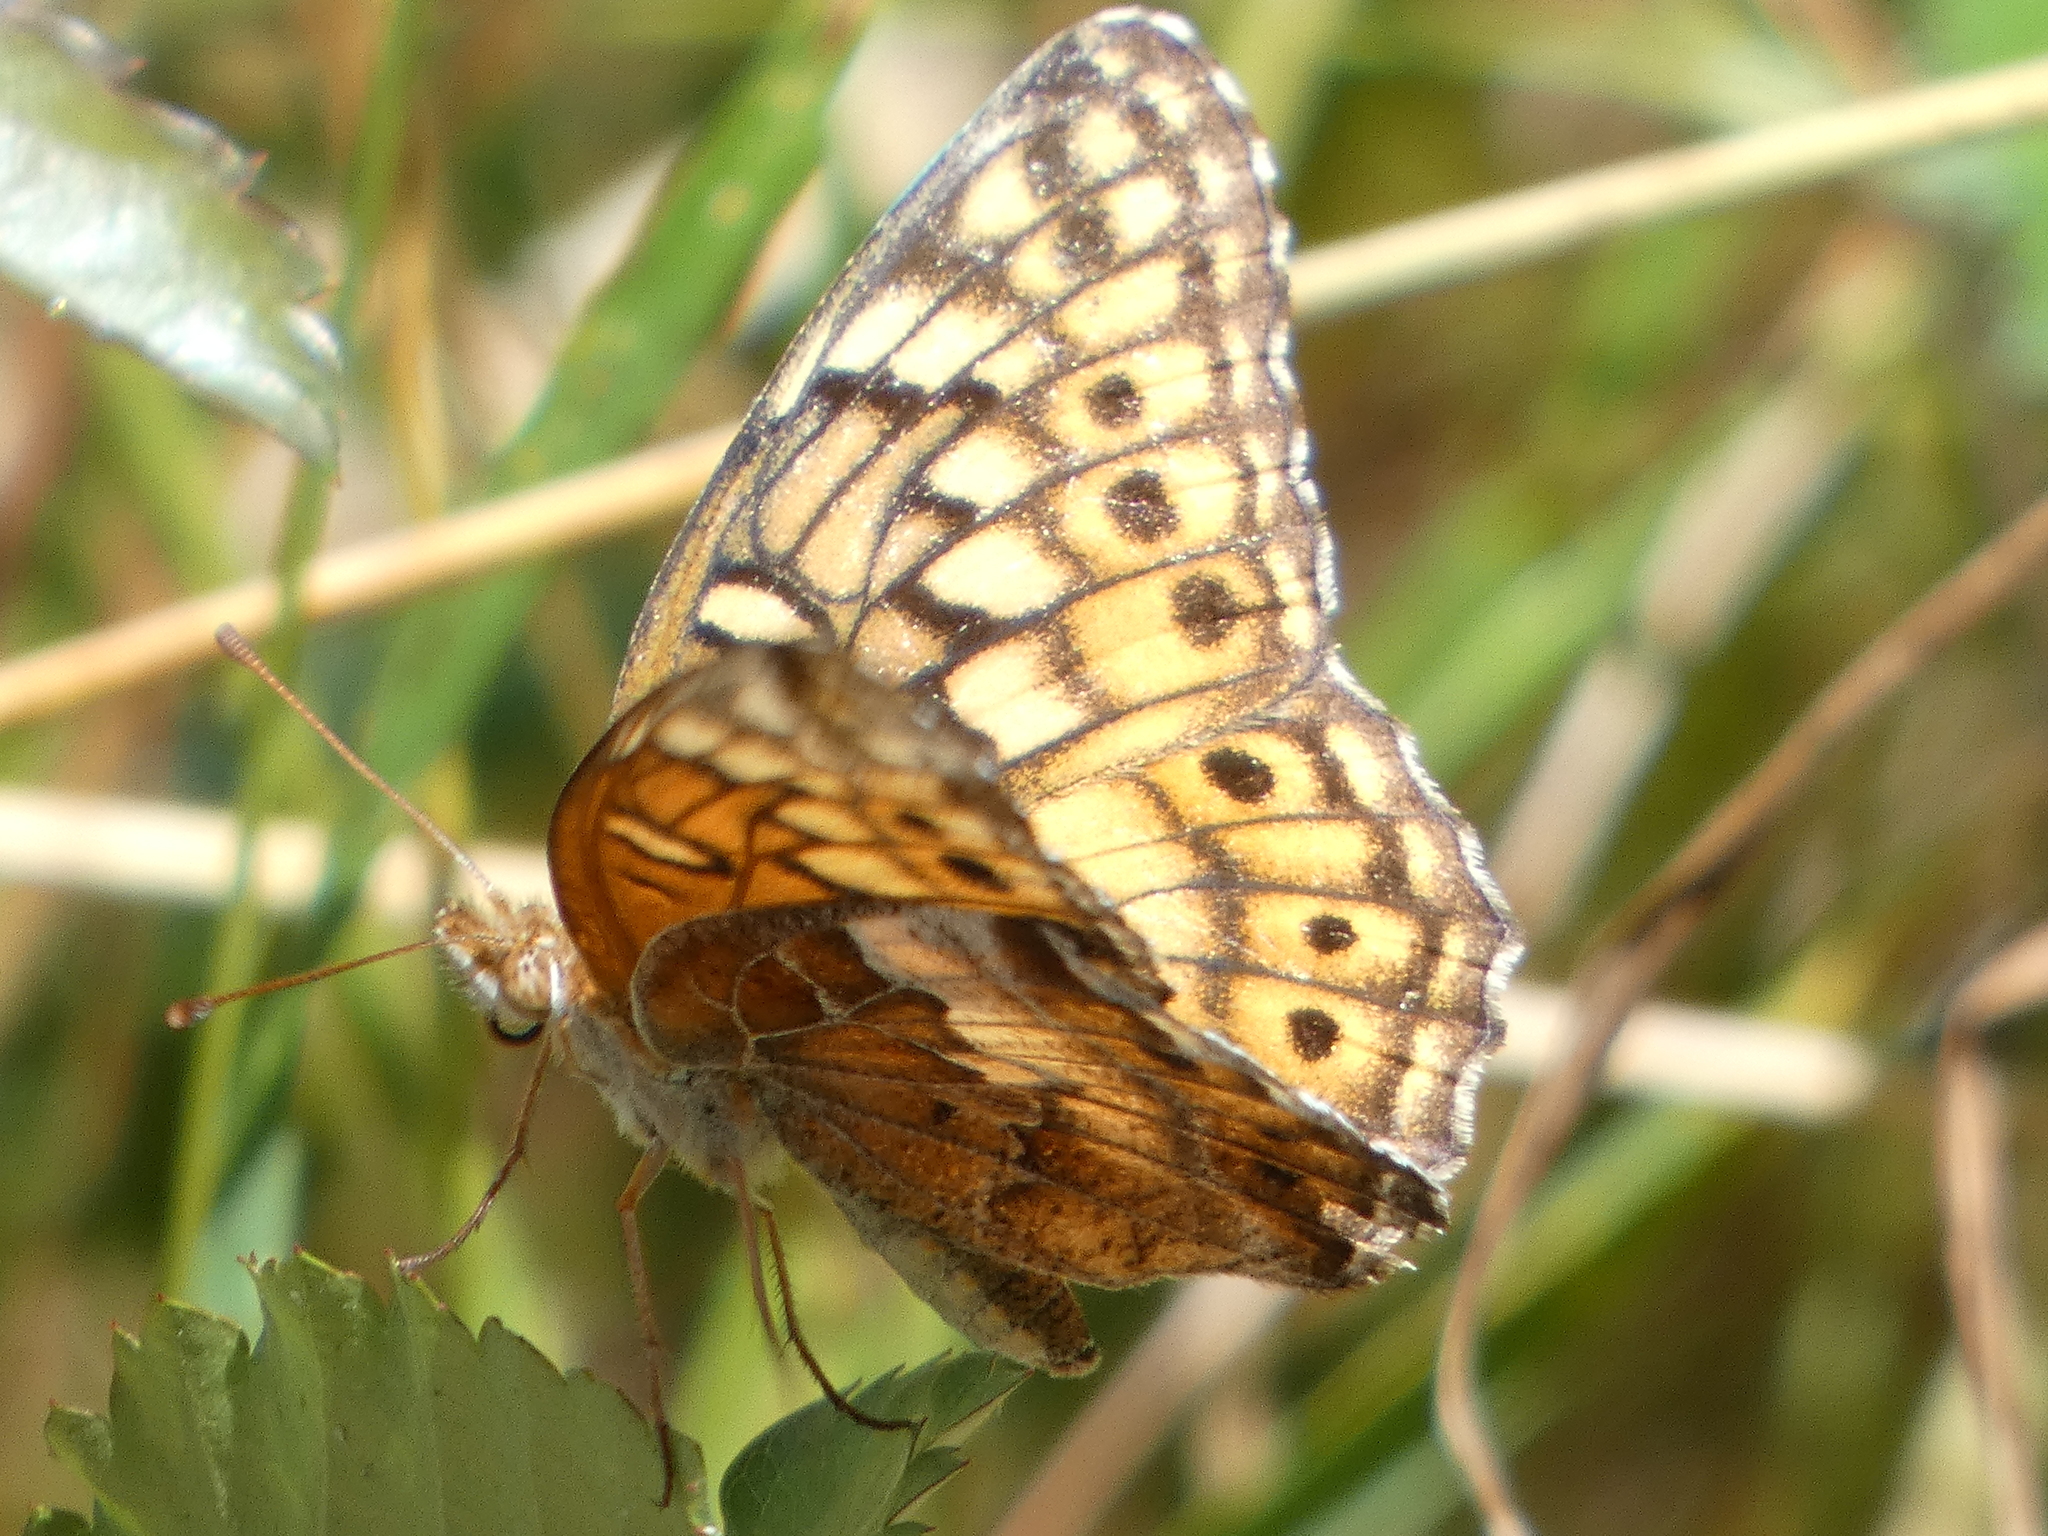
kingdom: Animalia
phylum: Arthropoda
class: Insecta
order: Lepidoptera
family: Nymphalidae
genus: Euptoieta
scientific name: Euptoieta claudia
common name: Variegated fritillary
